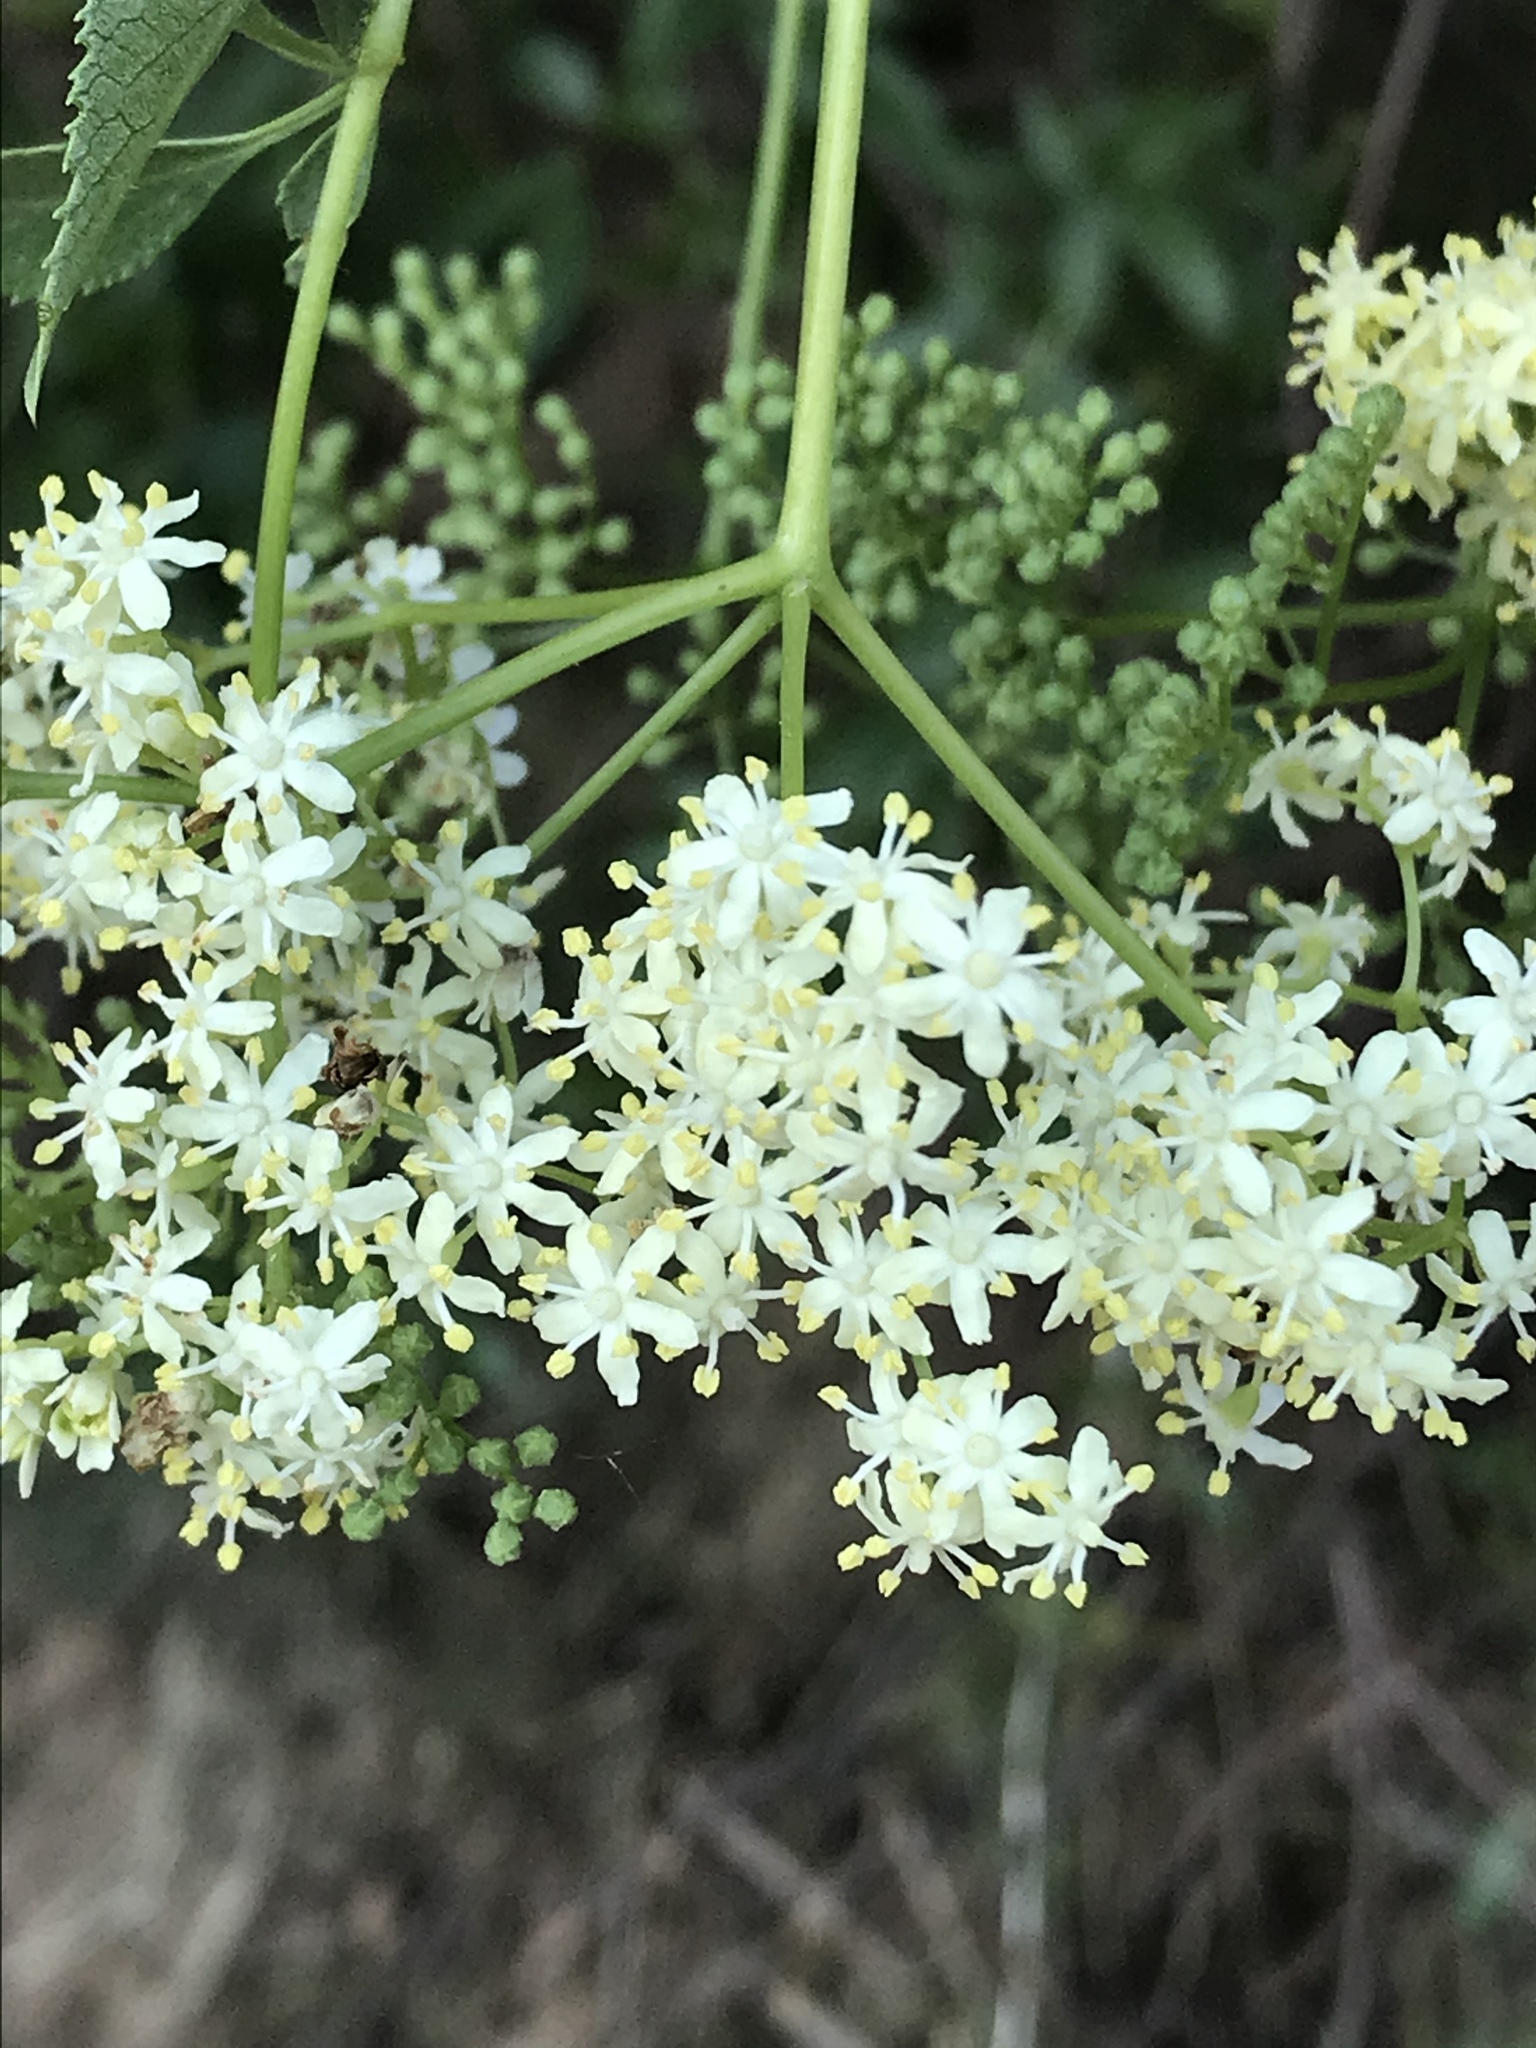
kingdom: Plantae
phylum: Tracheophyta
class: Magnoliopsida
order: Dipsacales
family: Viburnaceae
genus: Sambucus
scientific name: Sambucus cerulea
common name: Blue elder
